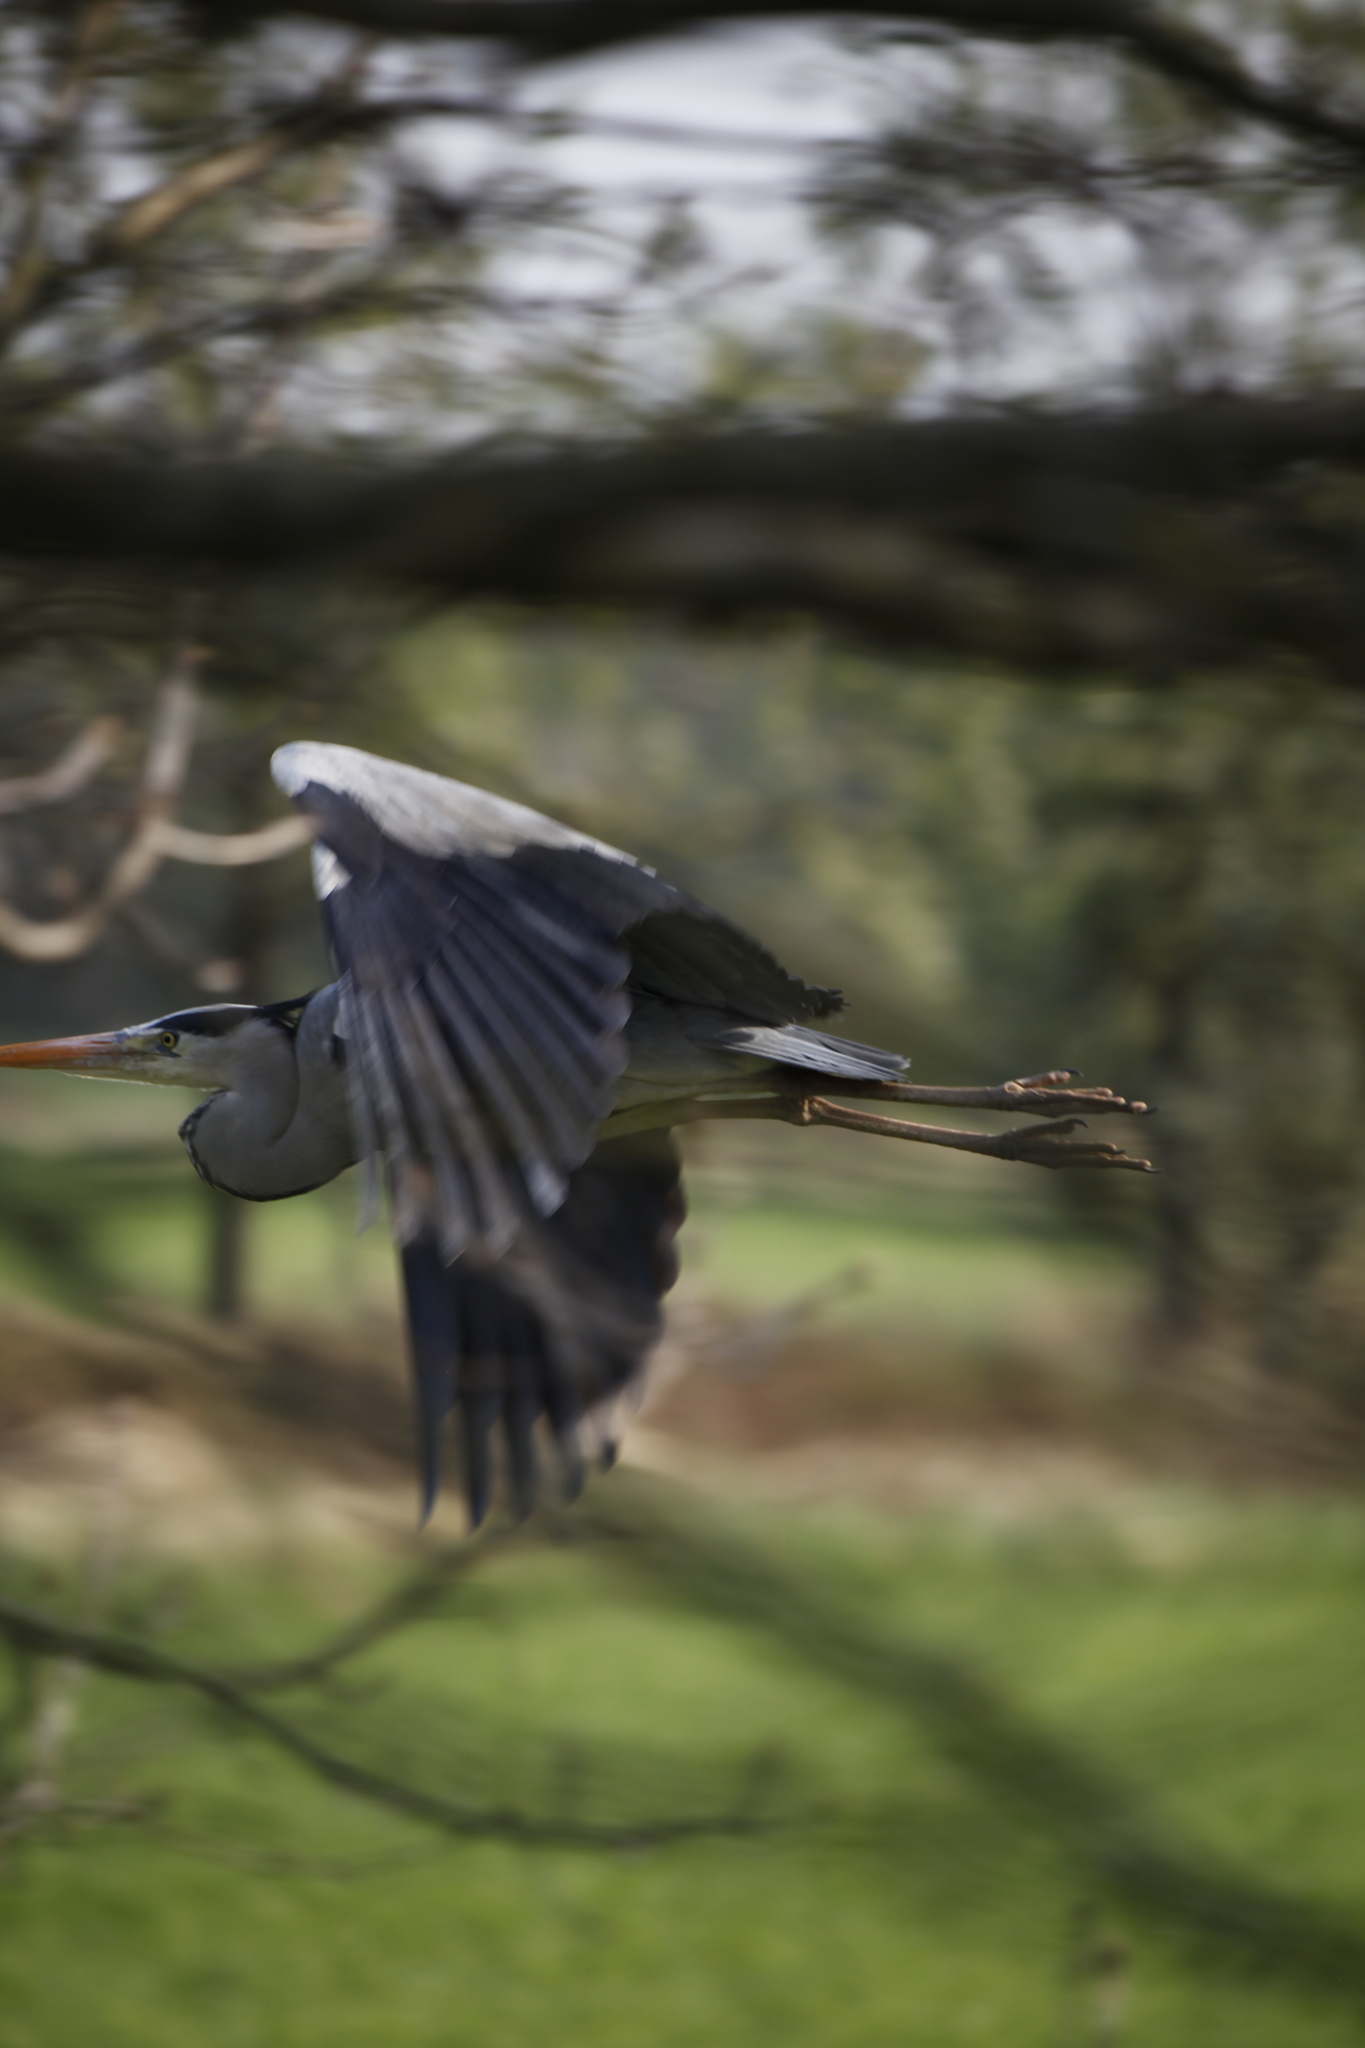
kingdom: Animalia
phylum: Chordata
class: Aves
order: Pelecaniformes
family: Ardeidae
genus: Ardea
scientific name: Ardea cinerea
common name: Grey heron
